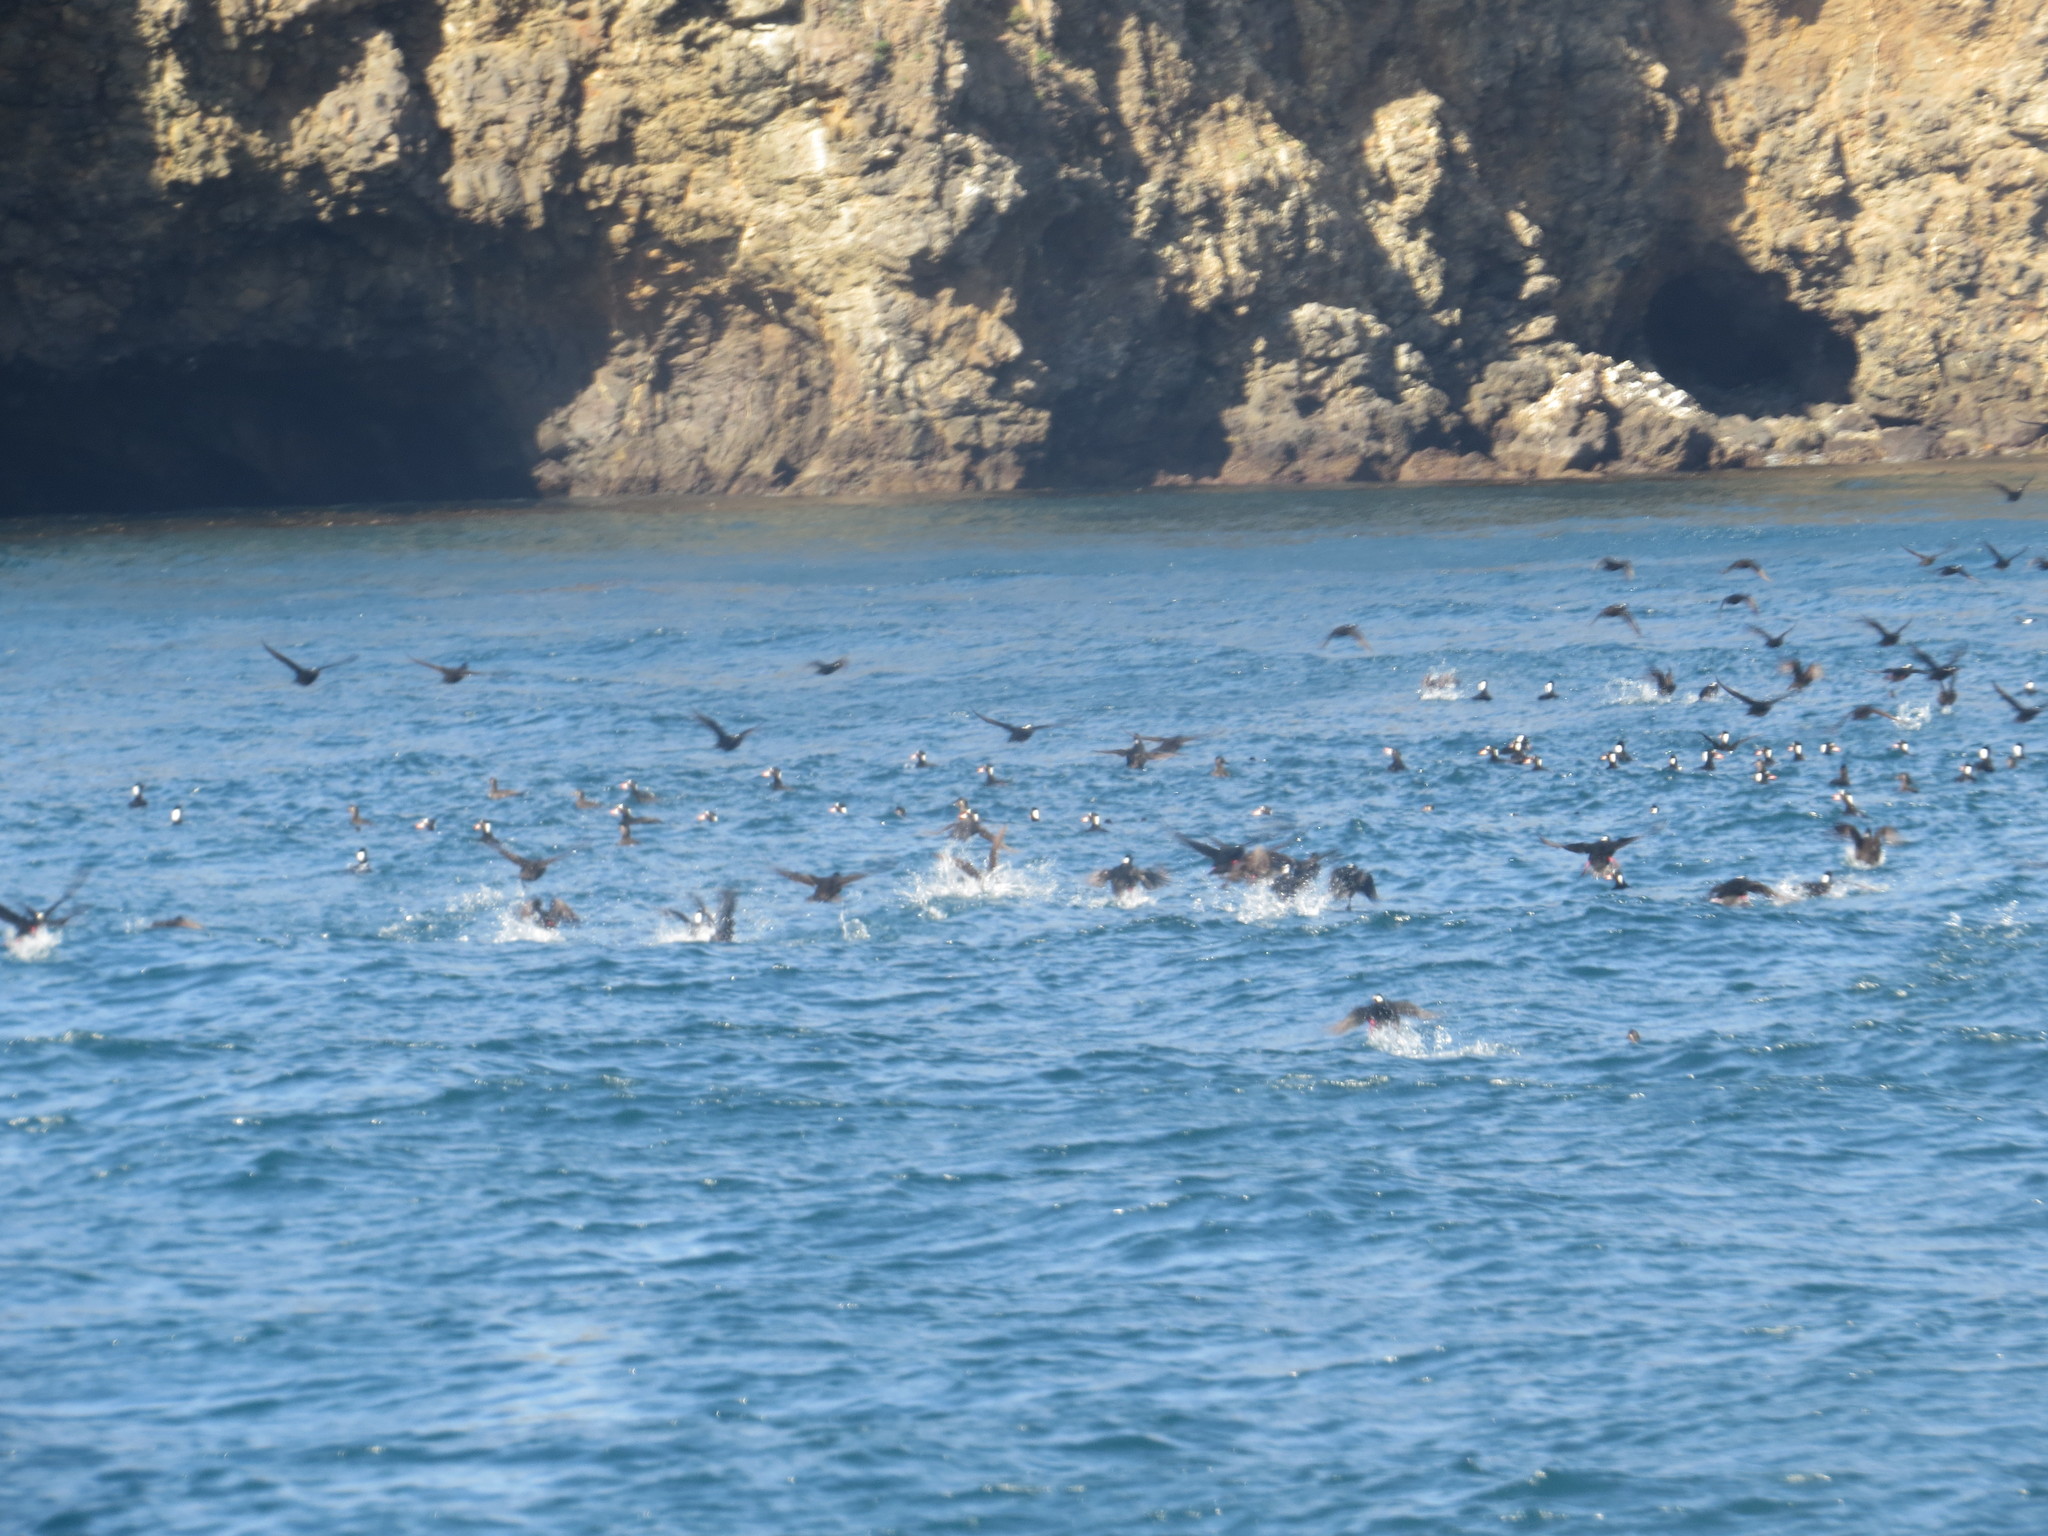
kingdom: Animalia
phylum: Chordata
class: Aves
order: Anseriformes
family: Anatidae
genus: Melanitta
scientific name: Melanitta perspicillata
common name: Surf scoter
